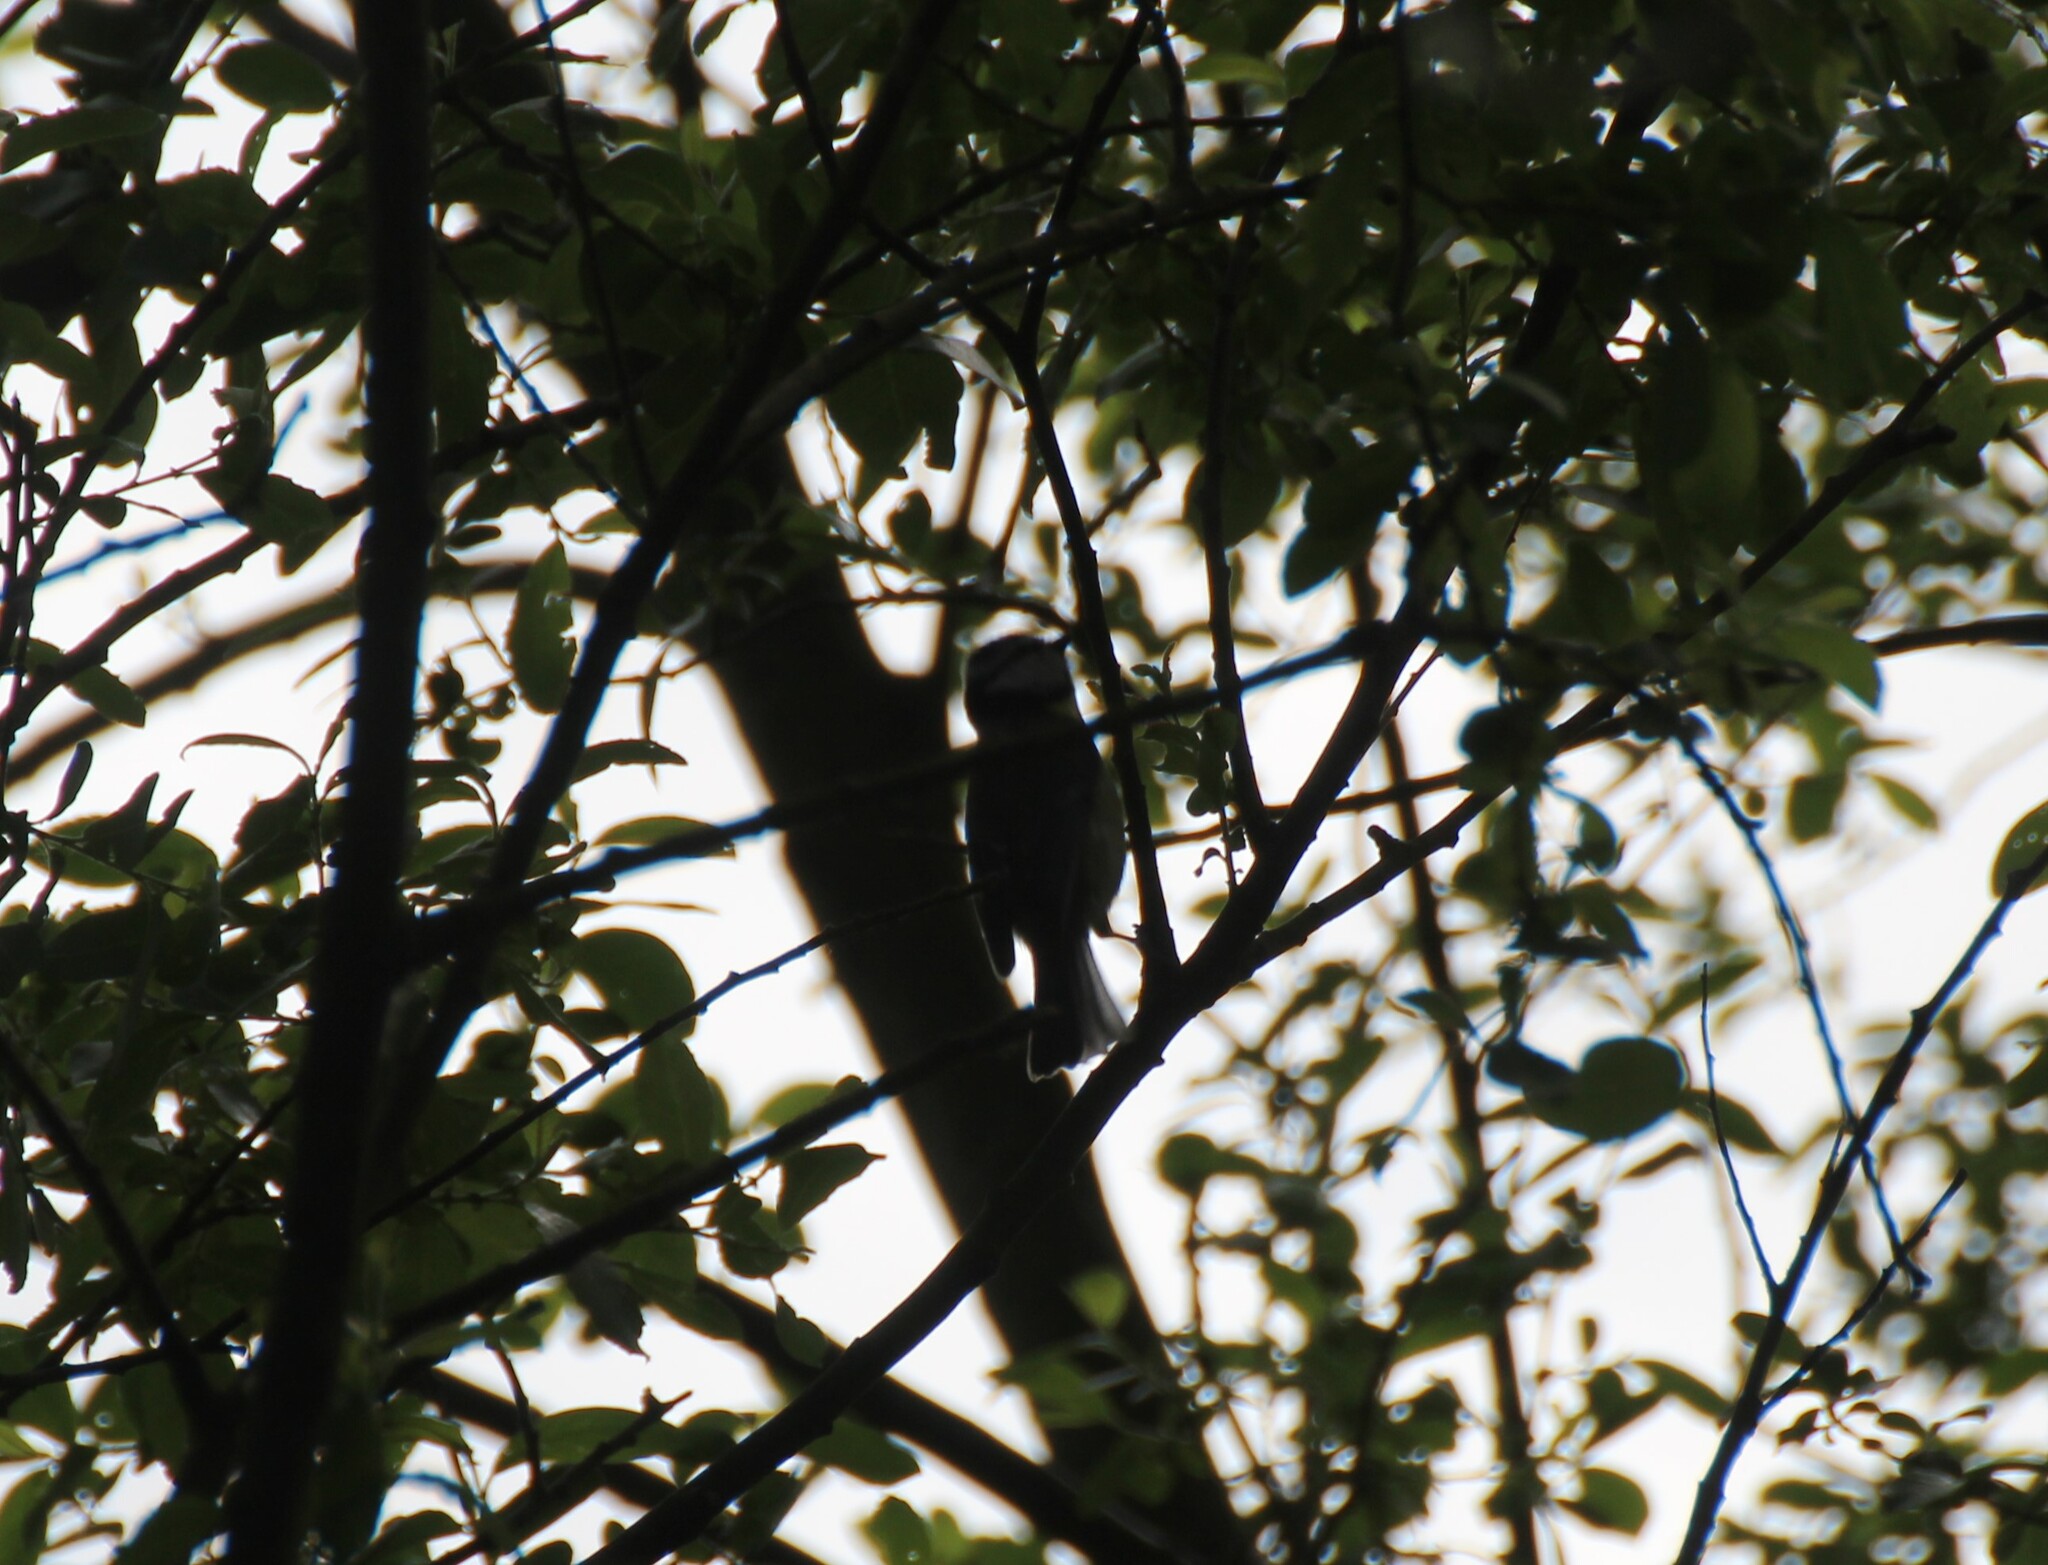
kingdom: Animalia
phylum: Chordata
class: Aves
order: Passeriformes
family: Paridae
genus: Cyanistes
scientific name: Cyanistes caeruleus
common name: Eurasian blue tit
